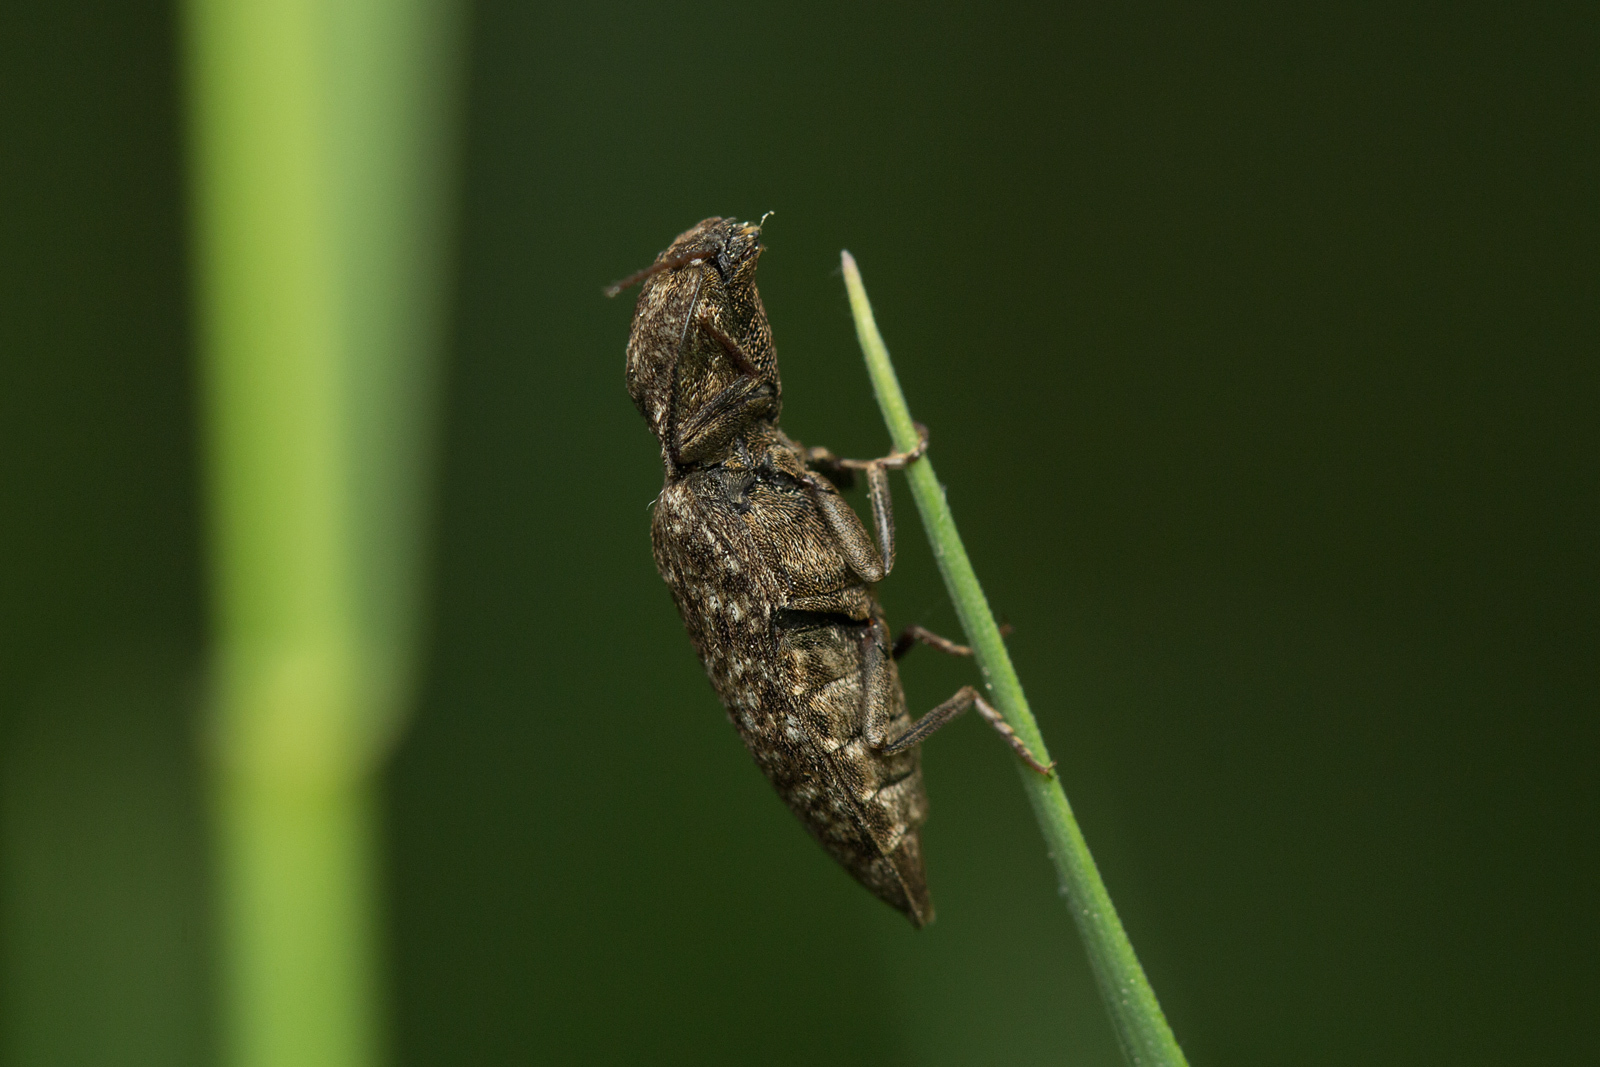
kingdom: Animalia
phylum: Arthropoda
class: Insecta
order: Coleoptera
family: Elateridae
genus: Agrypnus
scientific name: Agrypnus murinus
